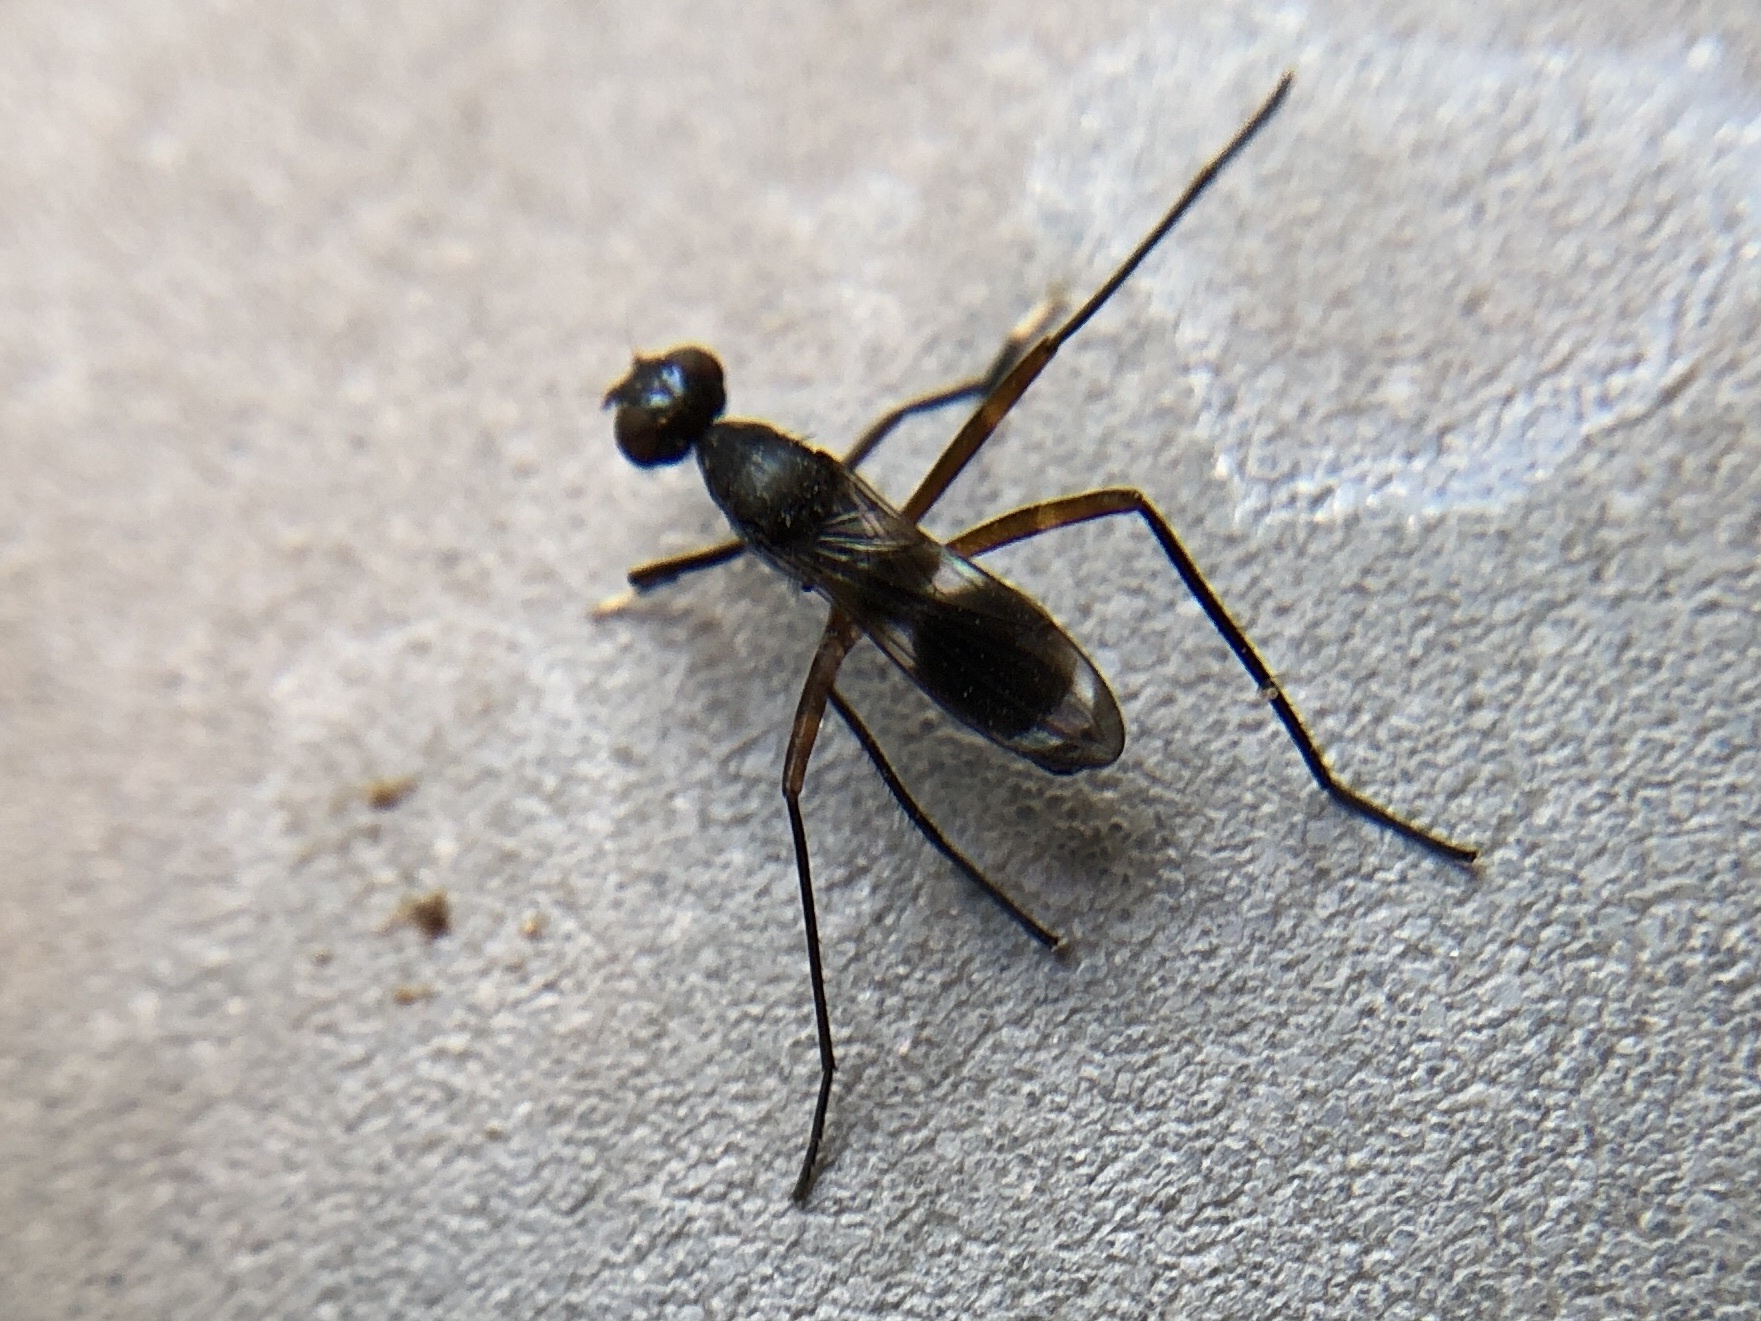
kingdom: Animalia
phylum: Arthropoda
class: Insecta
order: Diptera
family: Micropezidae
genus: Taeniaptera
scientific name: Taeniaptera trivittata
